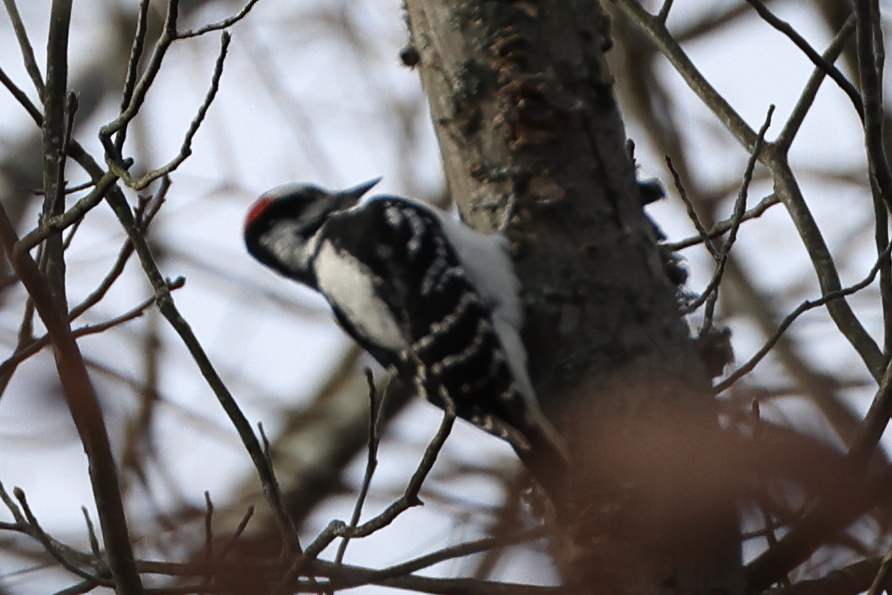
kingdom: Animalia
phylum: Chordata
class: Aves
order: Piciformes
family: Picidae
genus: Leuconotopicus
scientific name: Leuconotopicus villosus
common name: Hairy woodpecker
